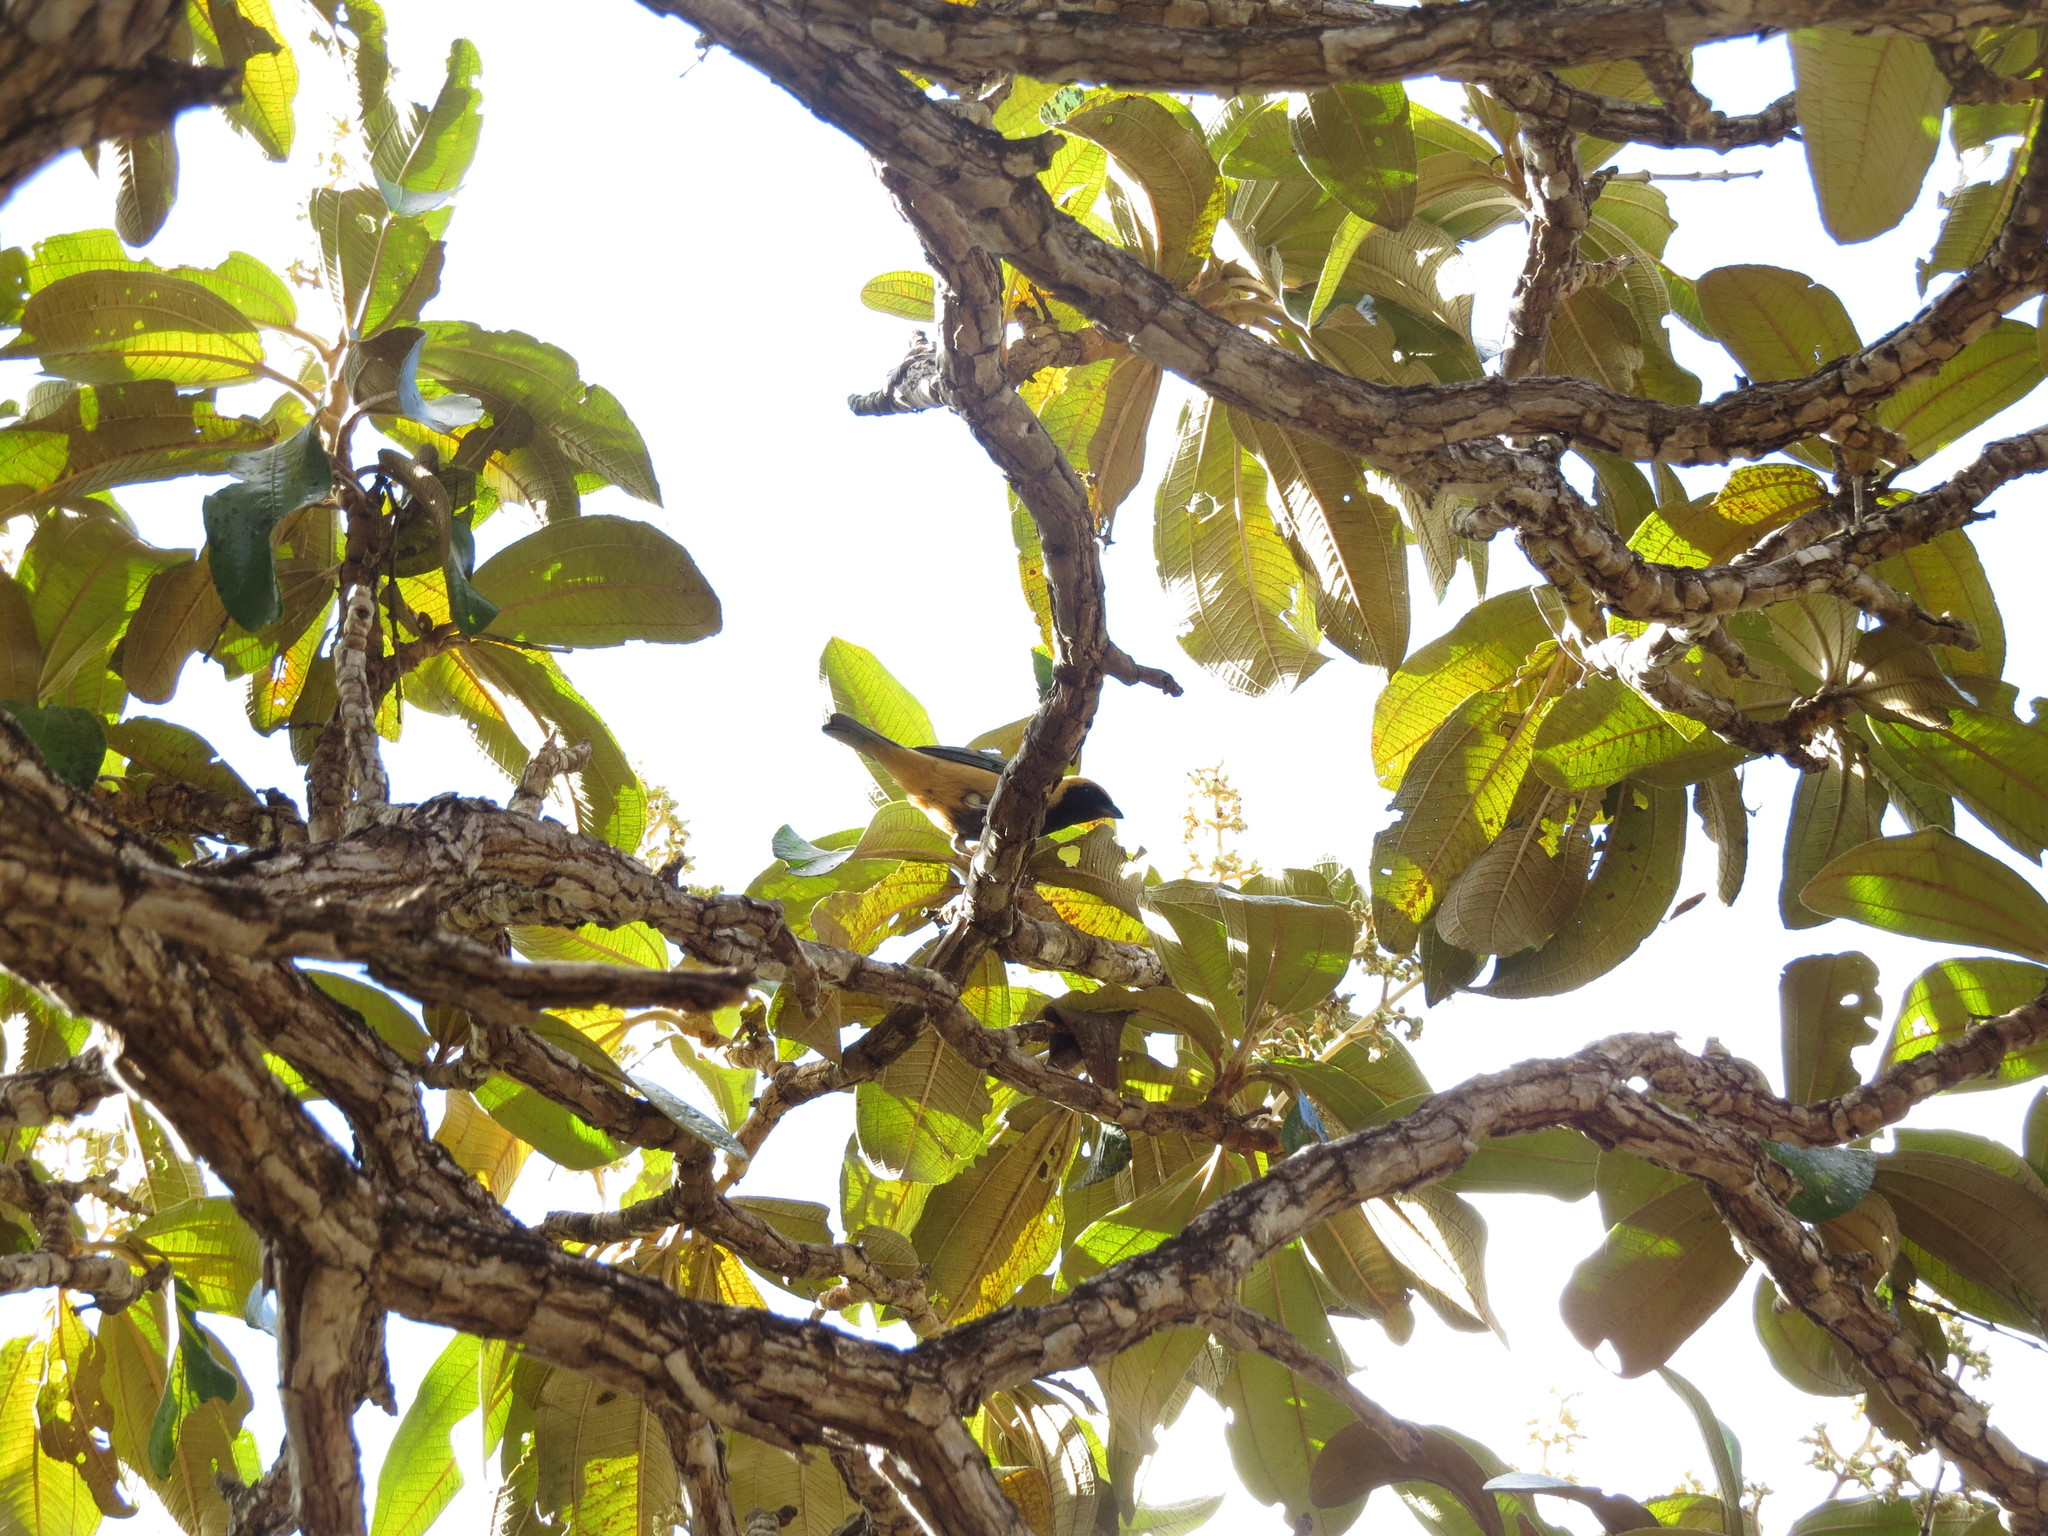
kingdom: Animalia
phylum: Chordata
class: Aves
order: Passeriformes
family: Thraupidae
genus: Stilpnia
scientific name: Stilpnia cayana
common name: Burnished-buff tanager
